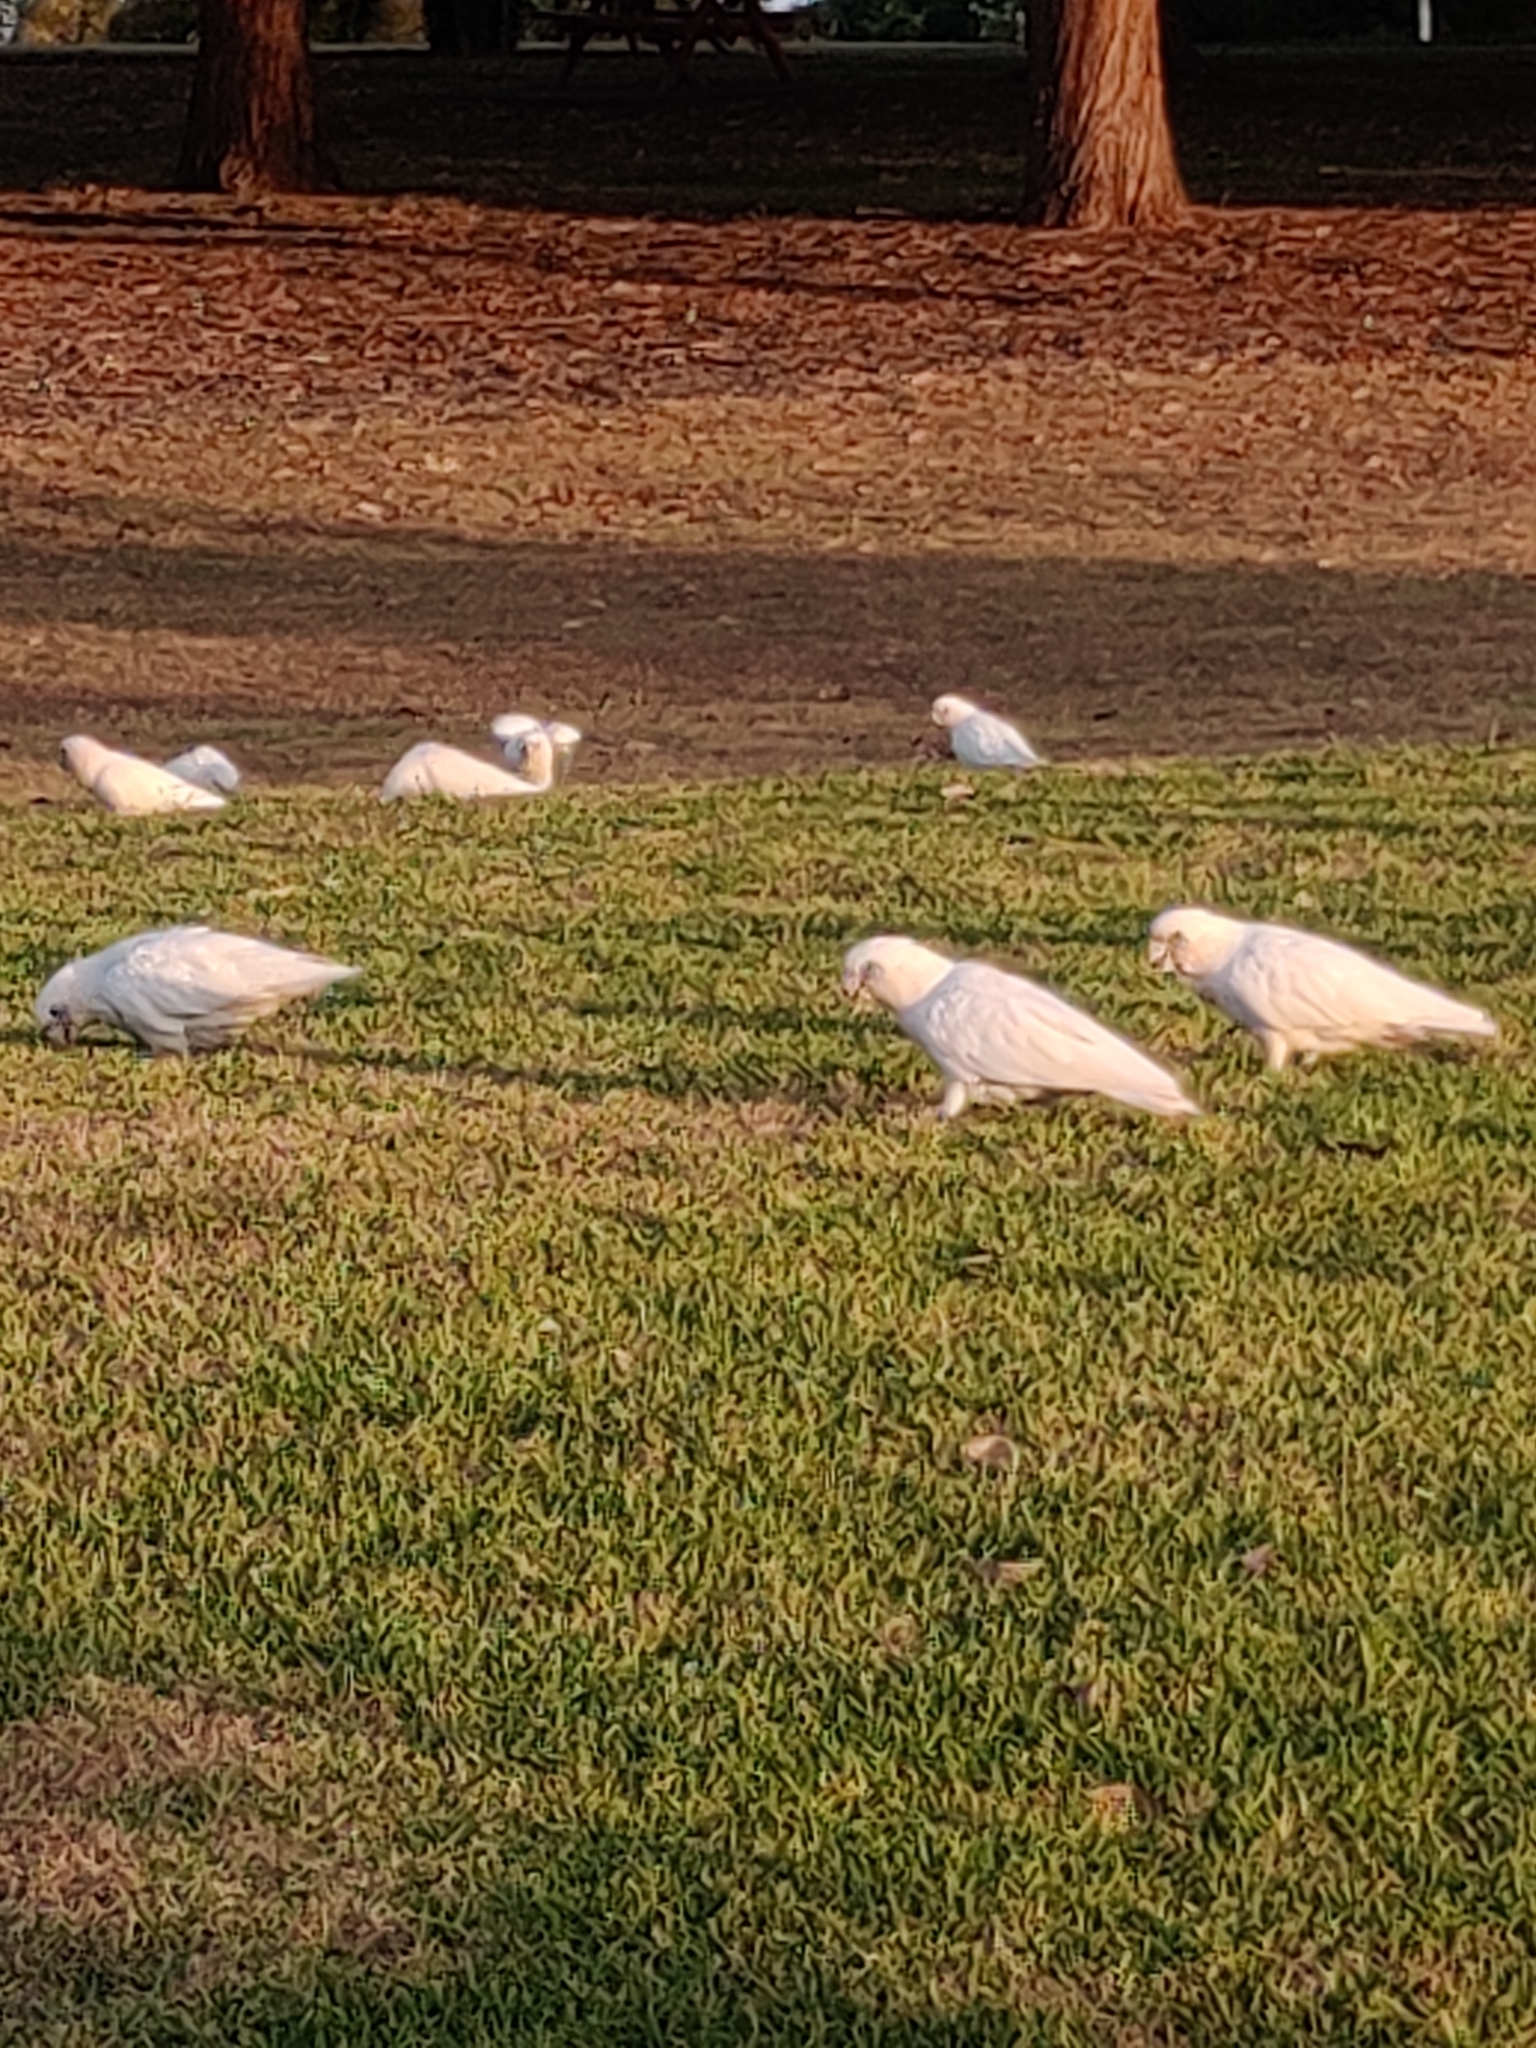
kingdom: Animalia
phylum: Chordata
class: Aves
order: Psittaciformes
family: Psittacidae
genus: Cacatua
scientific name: Cacatua sanguinea
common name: Little corella
